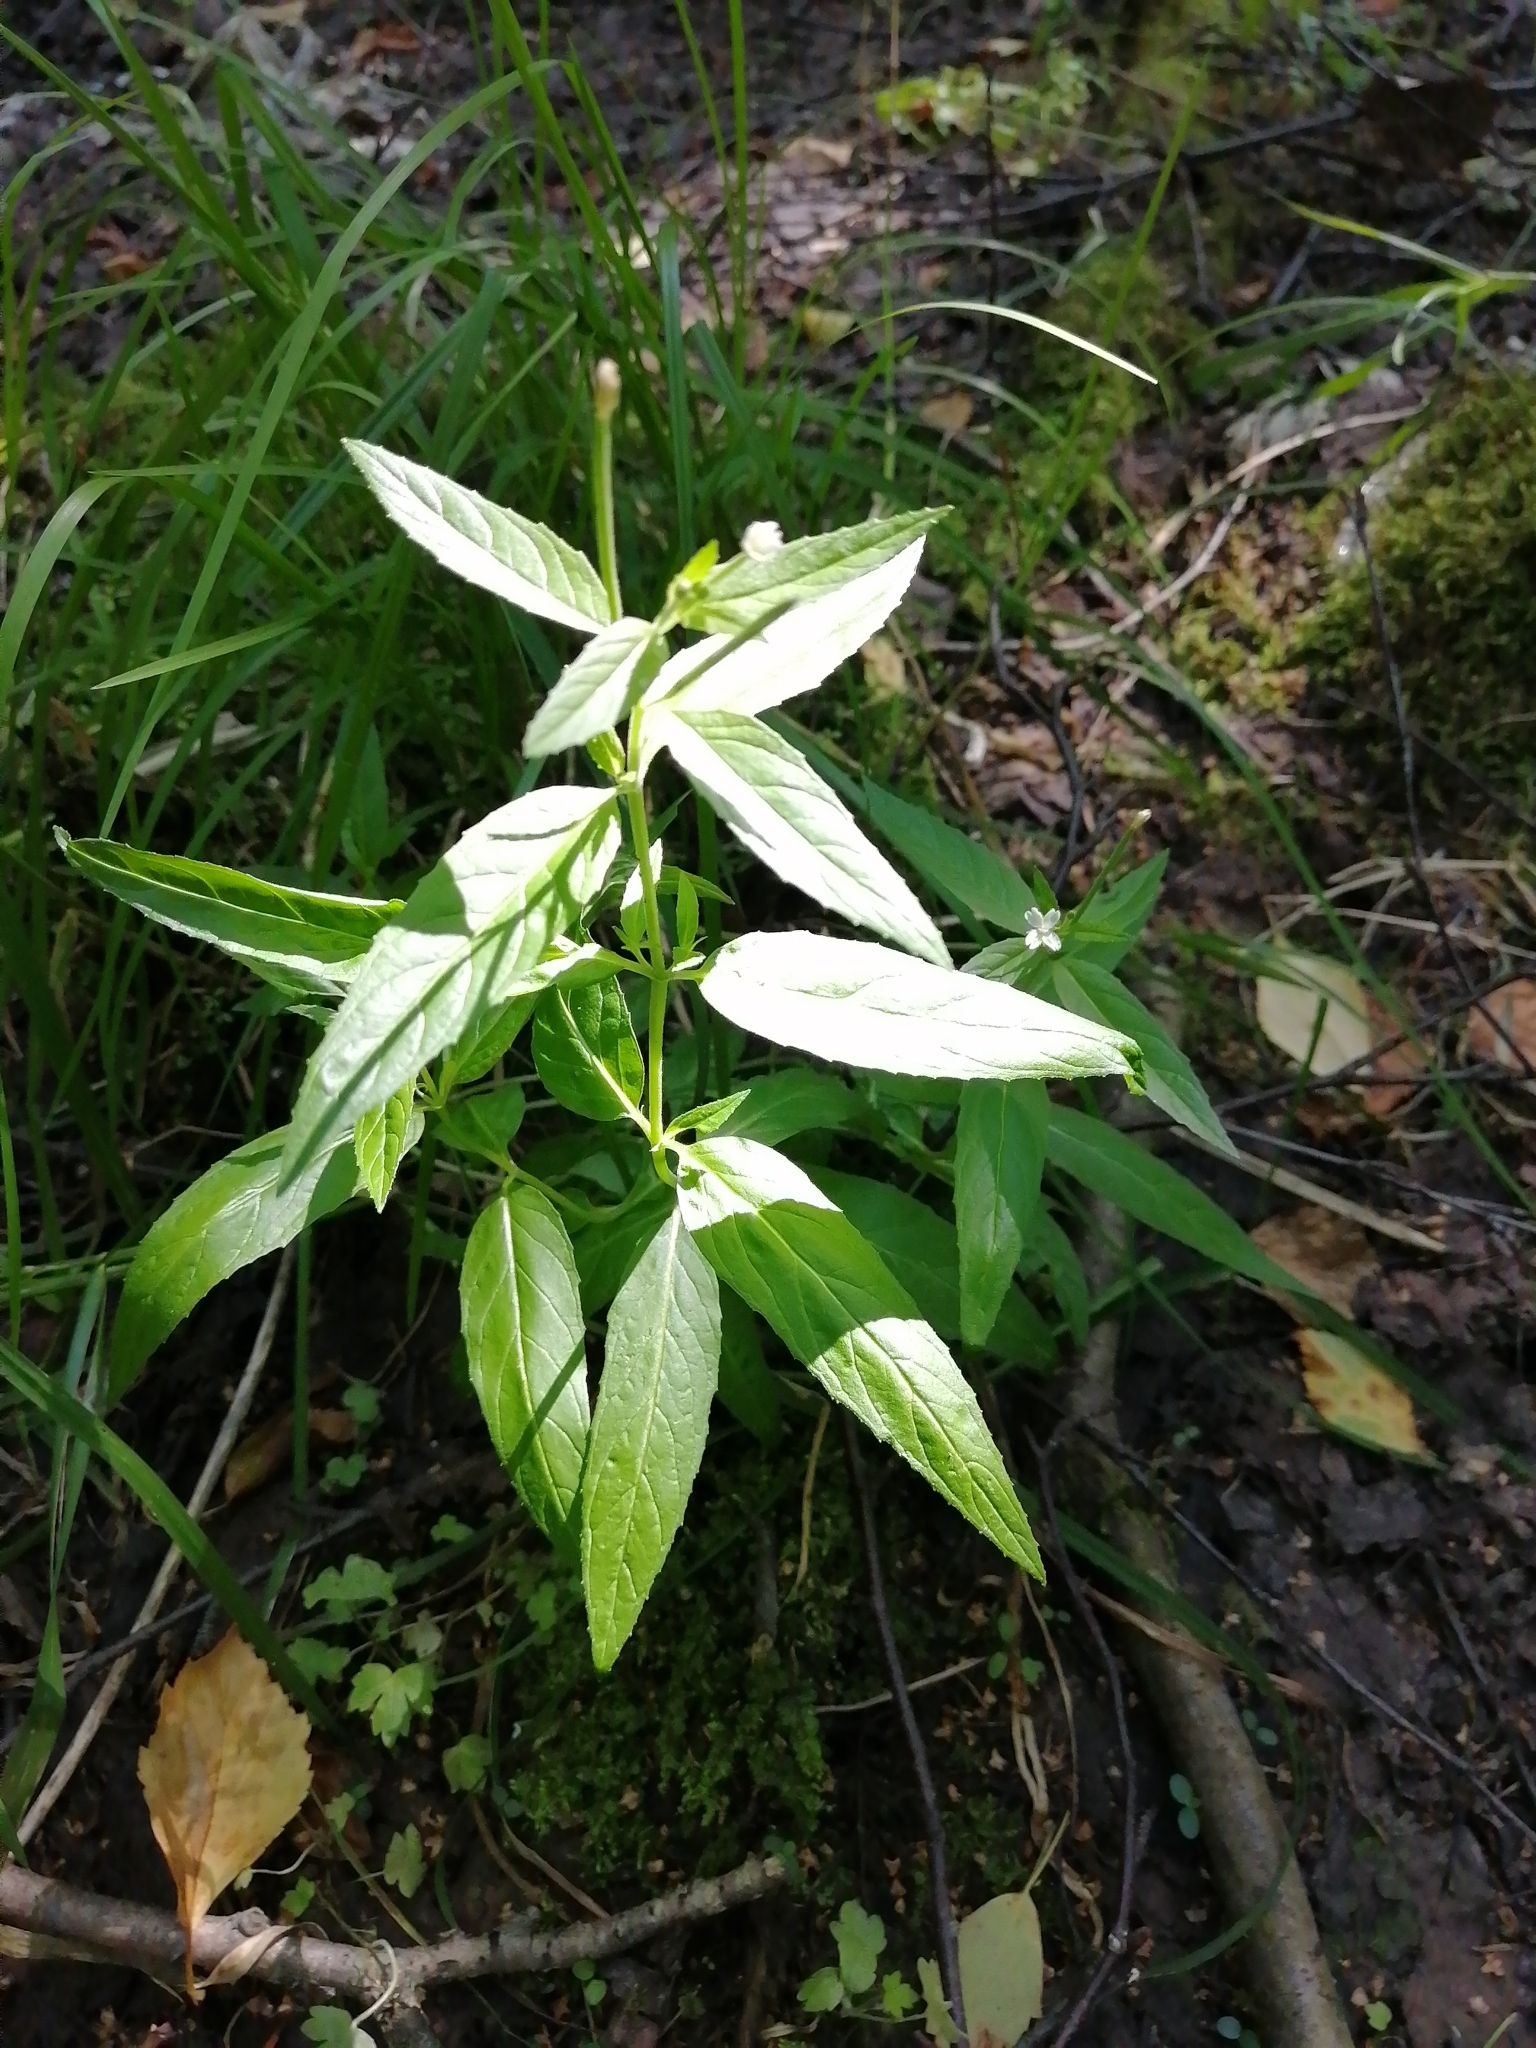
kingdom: Plantae
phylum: Tracheophyta
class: Magnoliopsida
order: Myrtales
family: Onagraceae
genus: Epilobium
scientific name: Epilobium pseudorubescens
